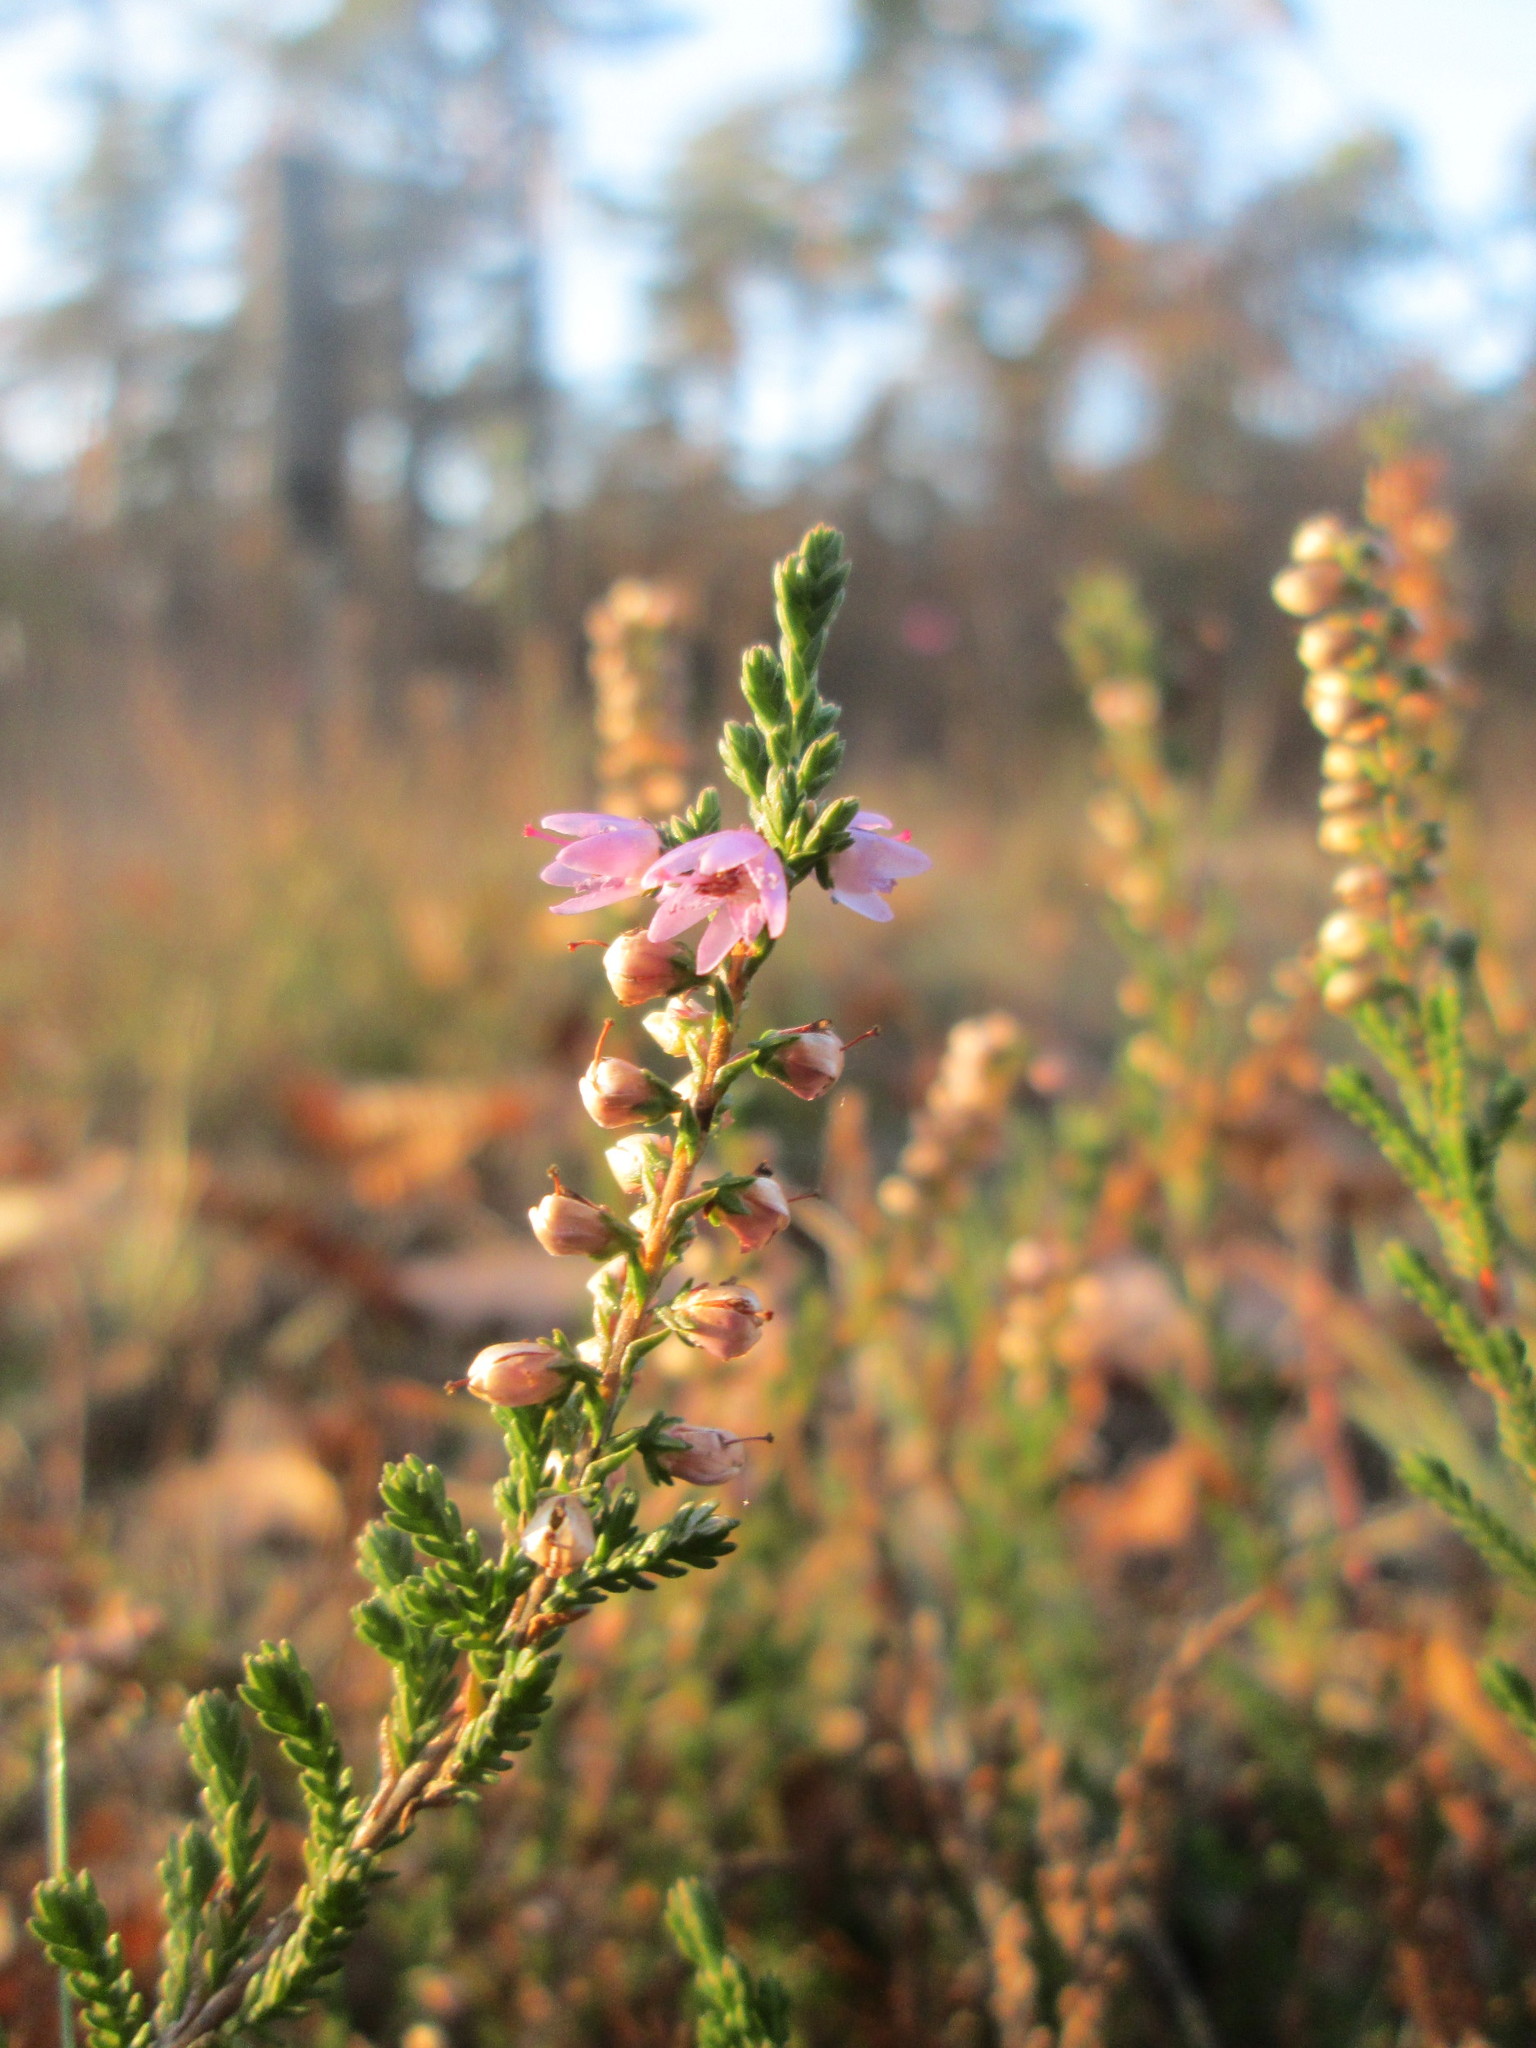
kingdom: Plantae
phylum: Tracheophyta
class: Magnoliopsida
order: Ericales
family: Ericaceae
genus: Calluna
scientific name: Calluna vulgaris
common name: Heather
